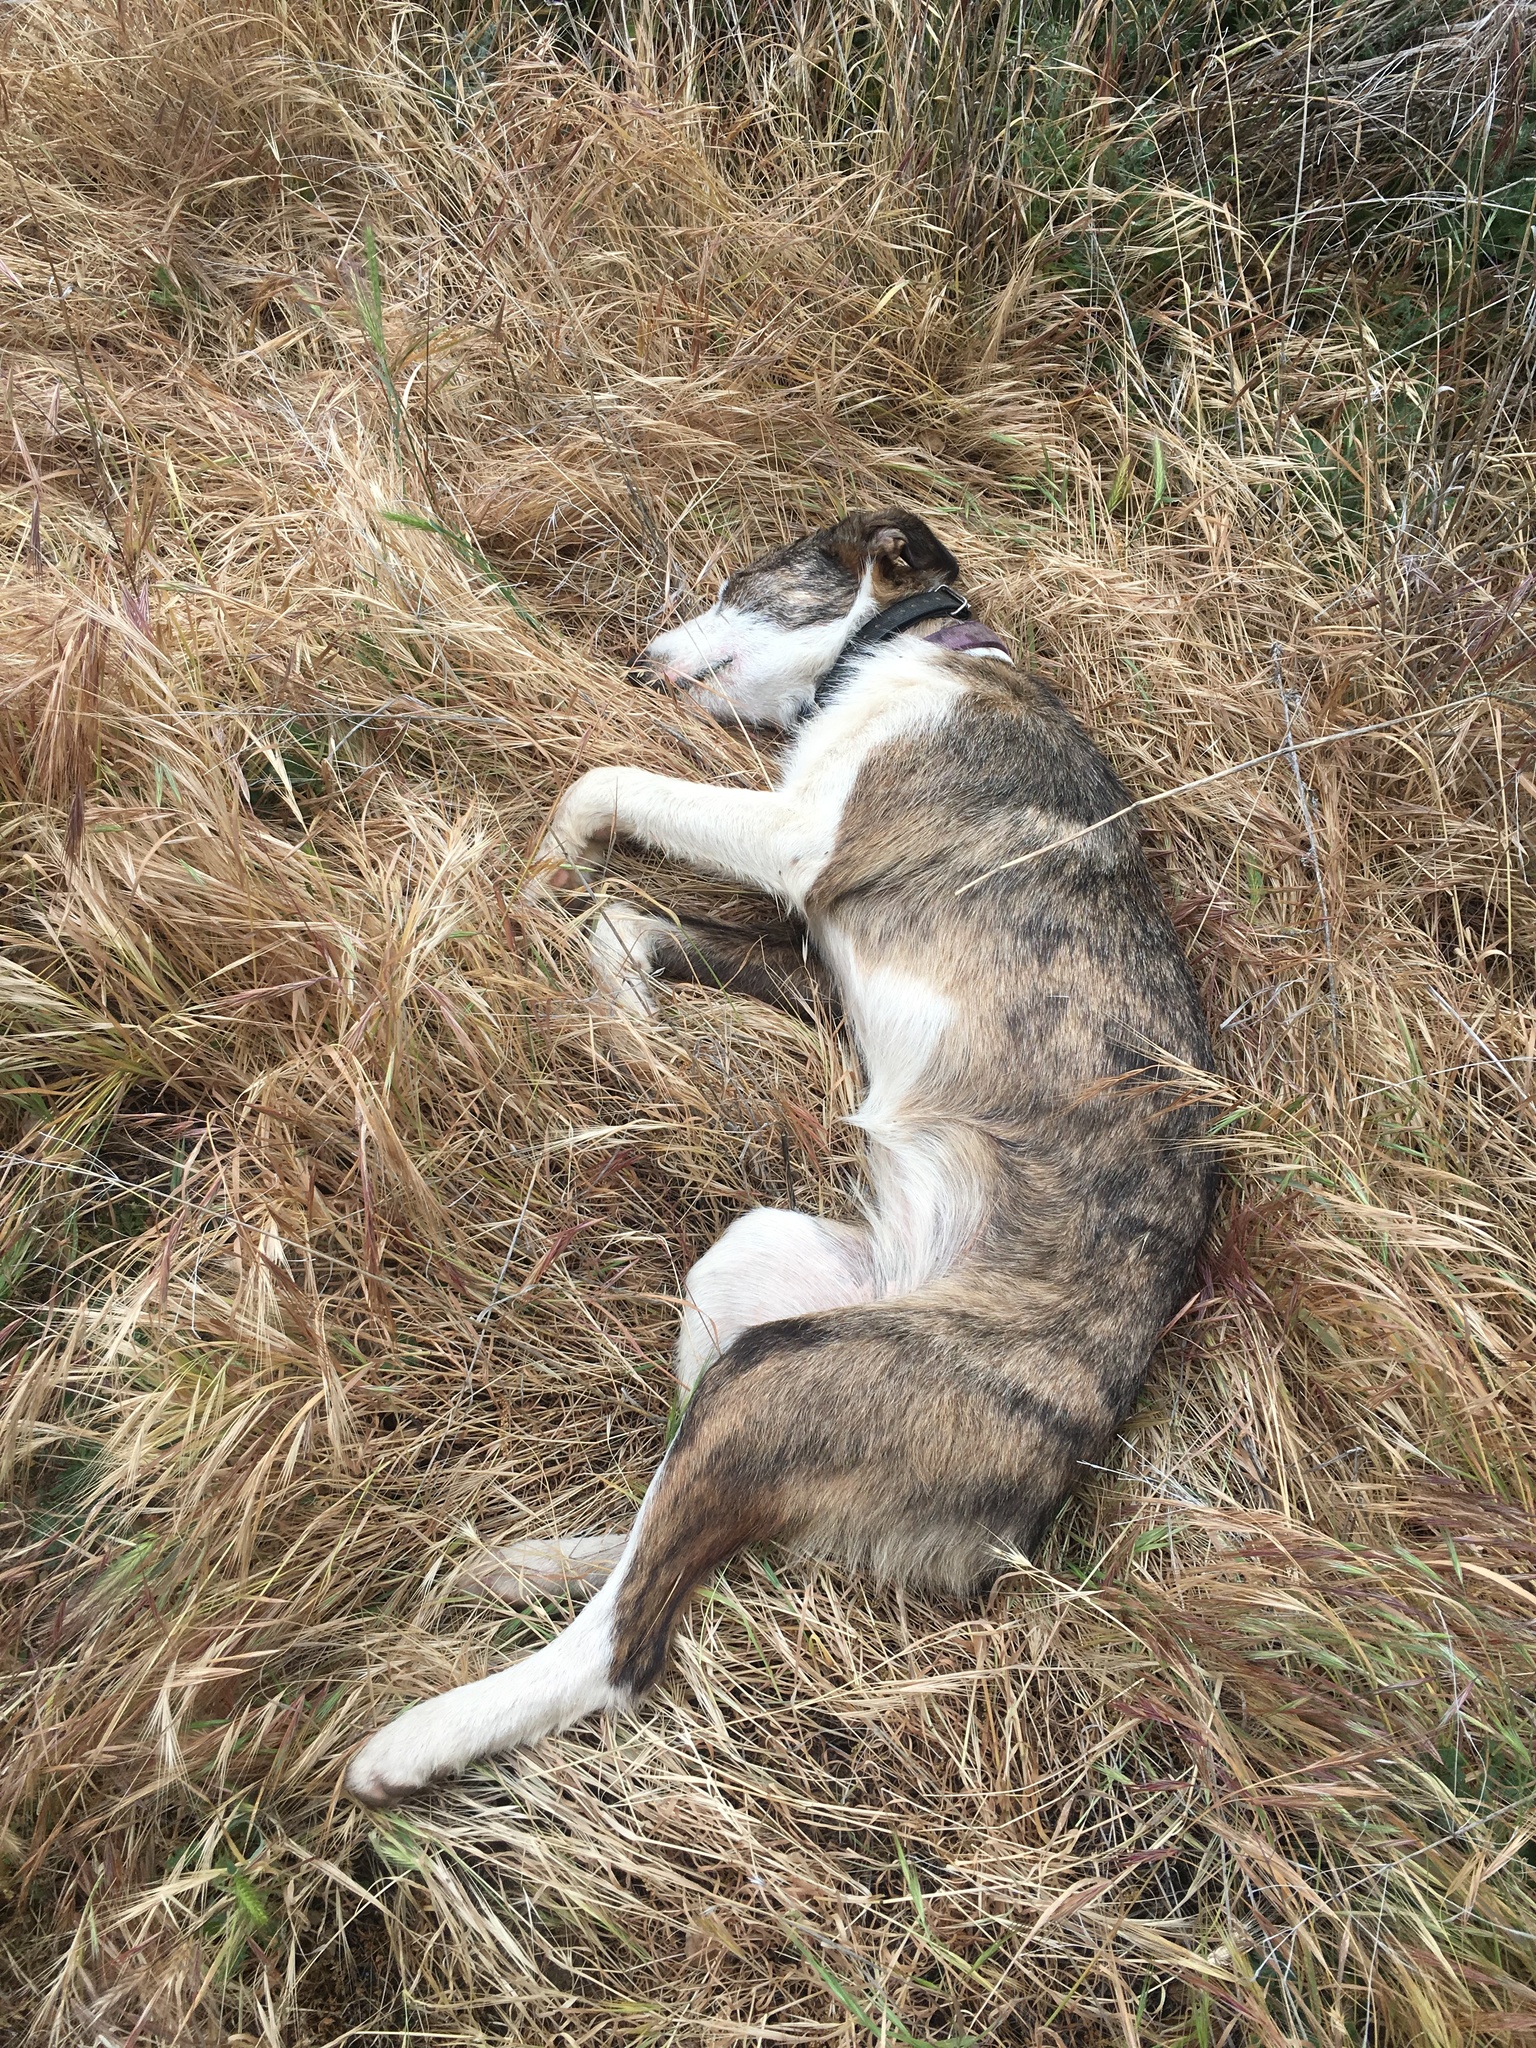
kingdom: Plantae
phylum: Tracheophyta
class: Liliopsida
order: Poales
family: Poaceae
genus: Bromus
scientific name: Bromus diandrus
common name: Ripgut brome
